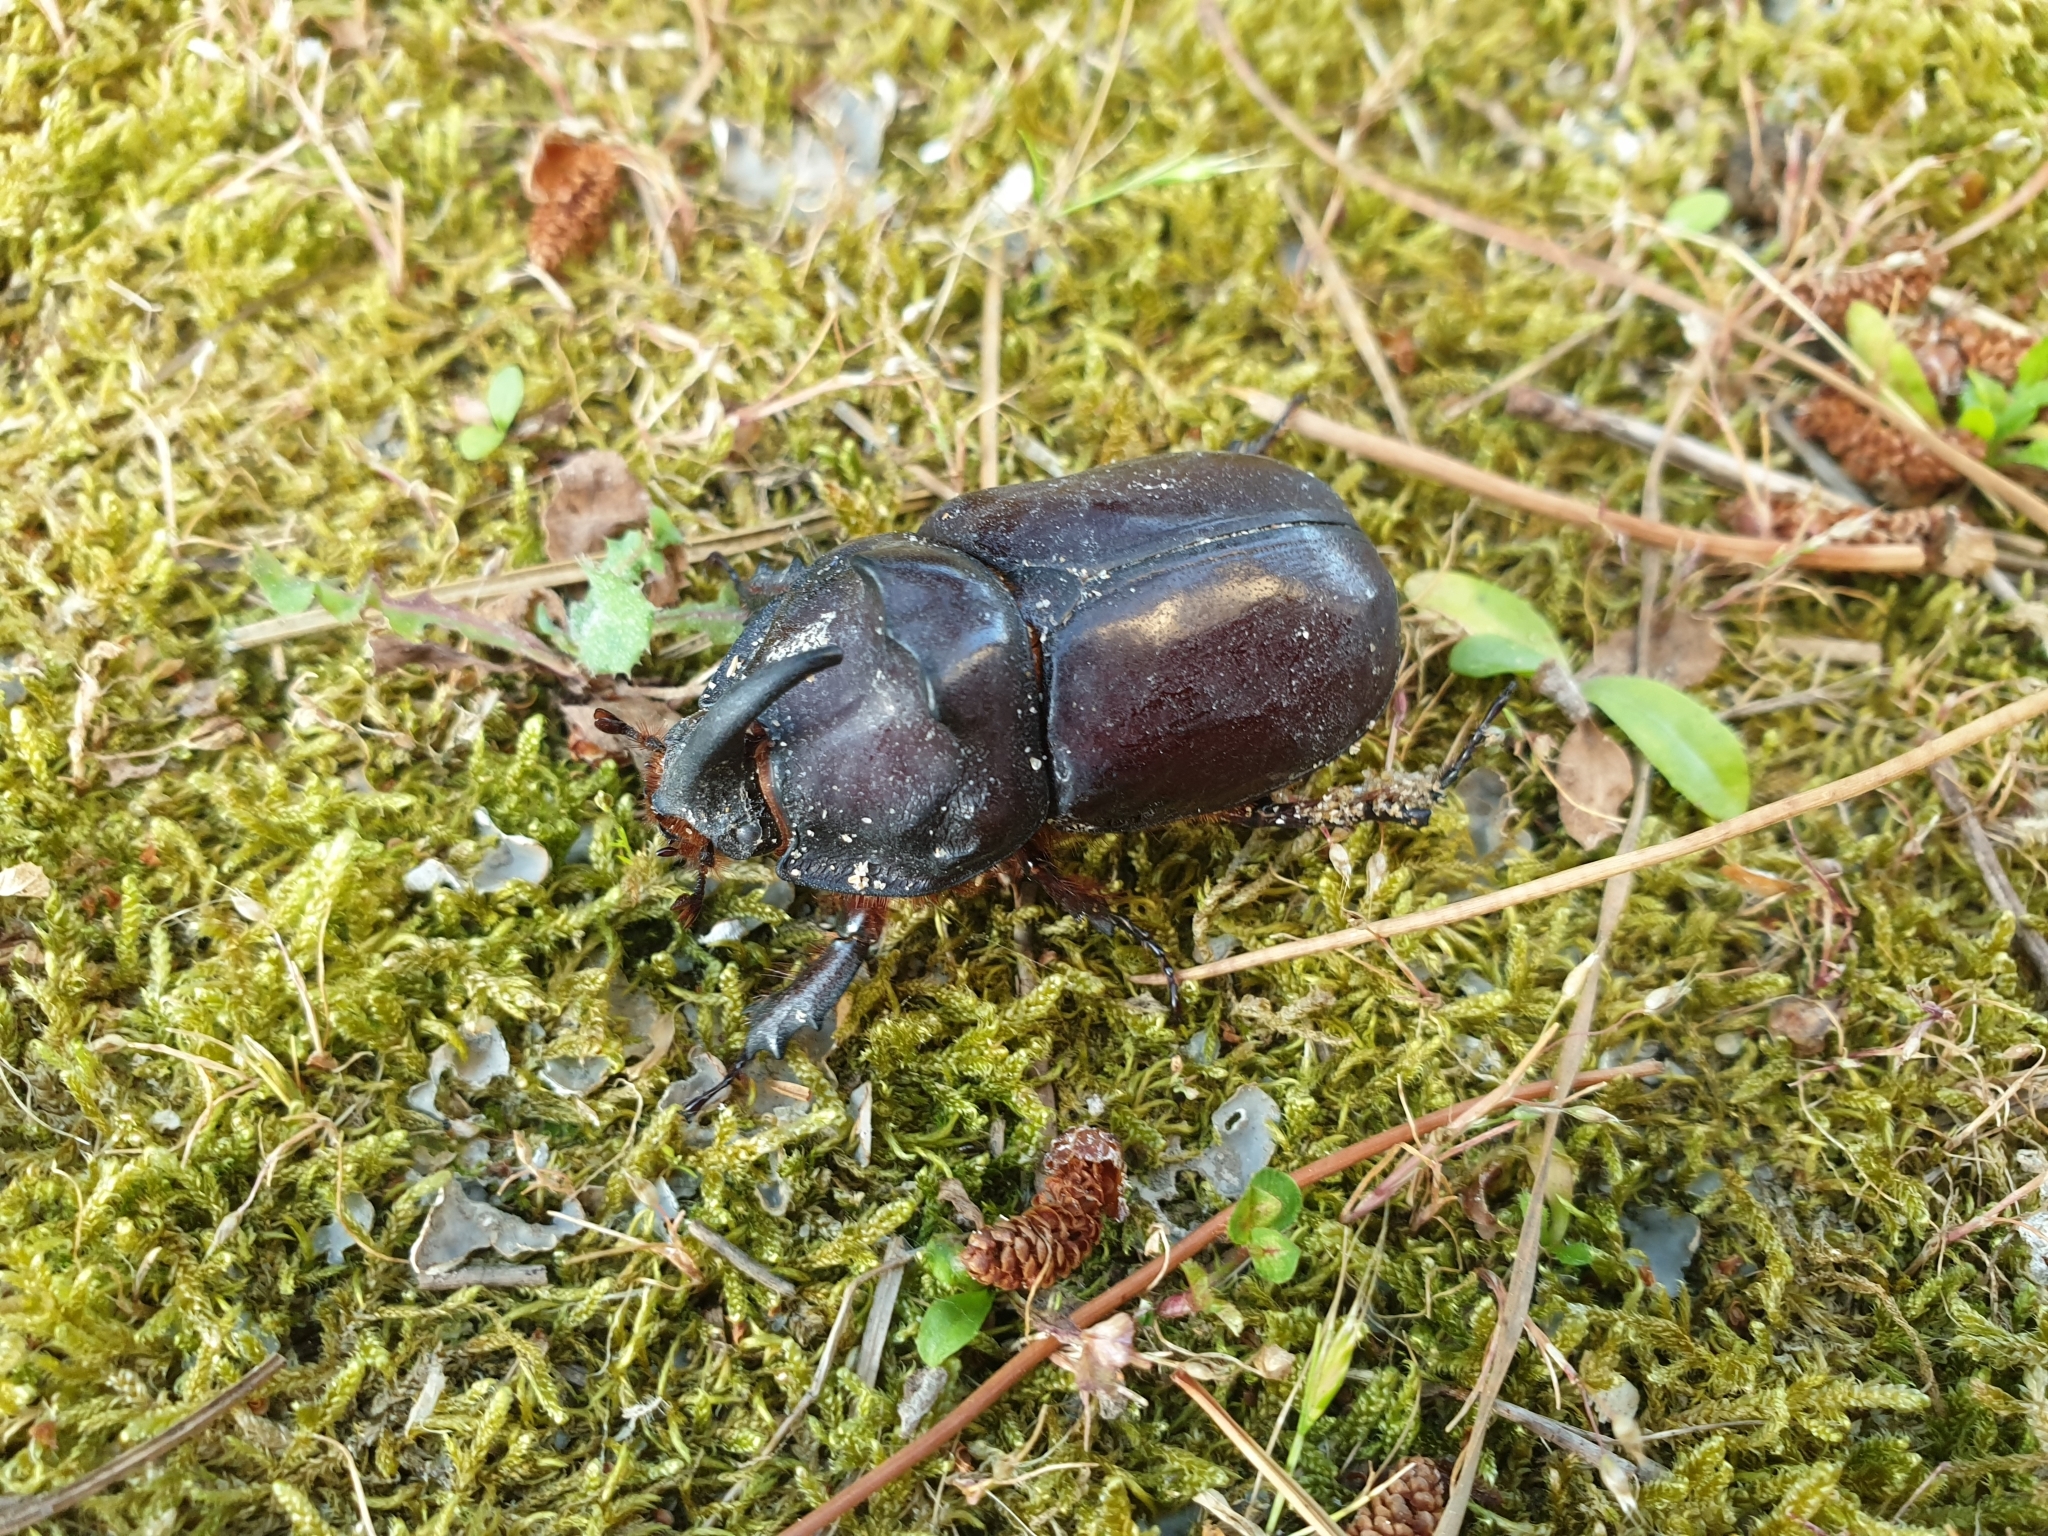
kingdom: Animalia
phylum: Arthropoda
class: Insecta
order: Coleoptera
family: Scarabaeidae
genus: Oryctes
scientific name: Oryctes nasicornis
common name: European rhinoceros beetle
